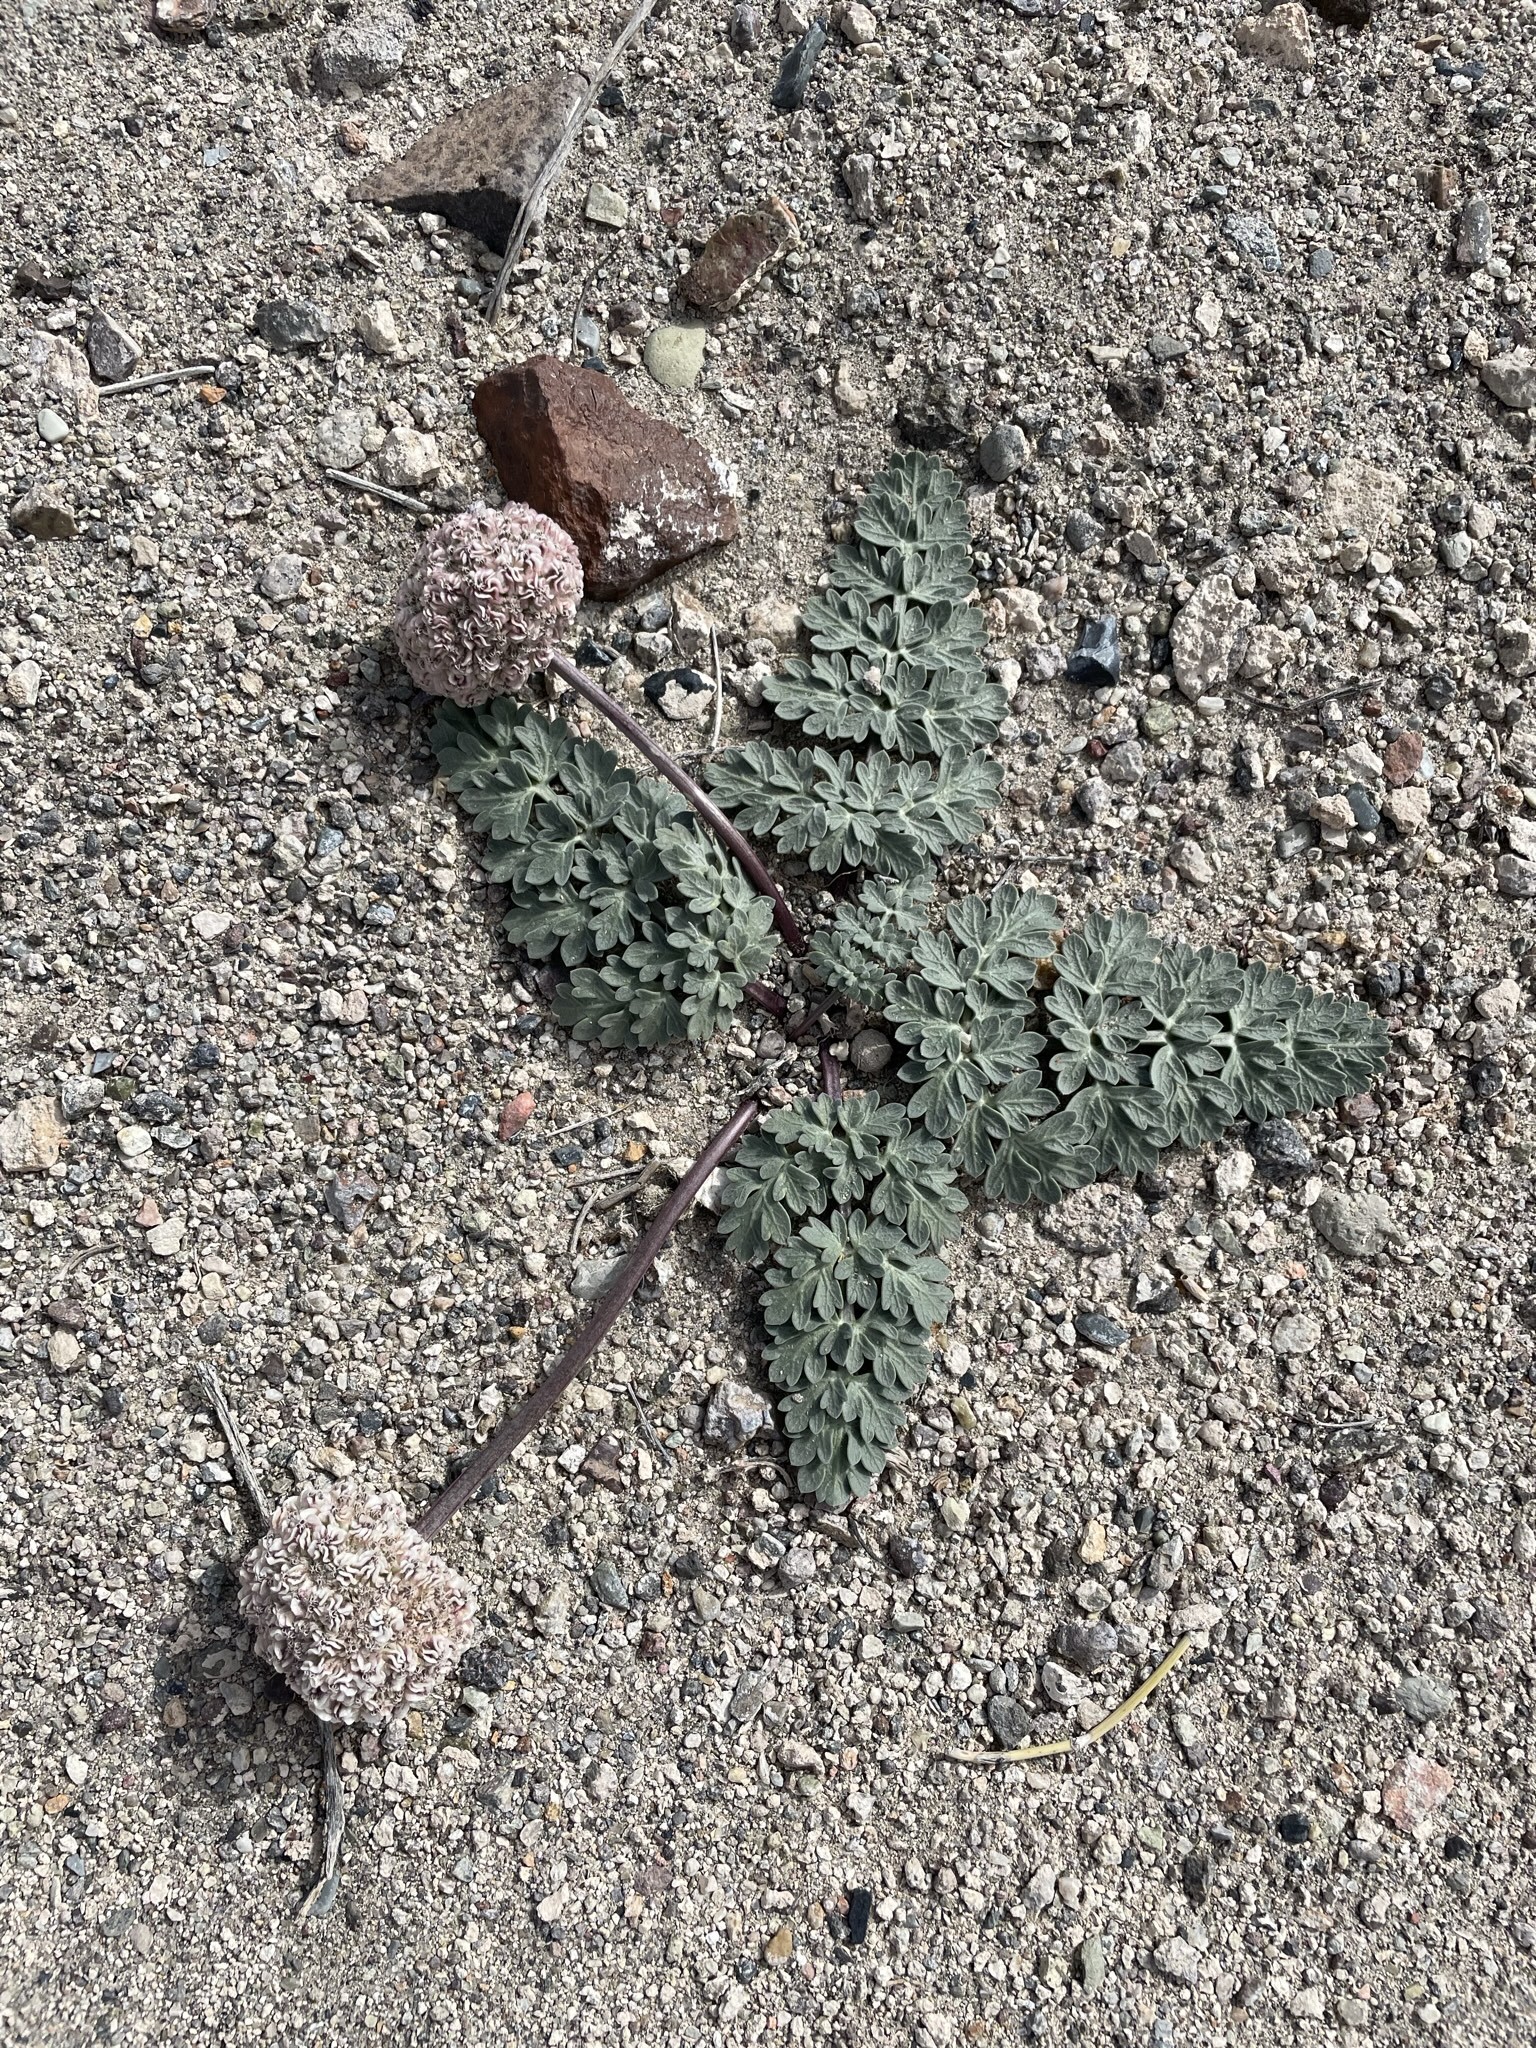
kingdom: Plantae
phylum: Tracheophyta
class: Magnoliopsida
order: Apiales
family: Apiaceae
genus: Cymopterus
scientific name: Cymopterus globosus
